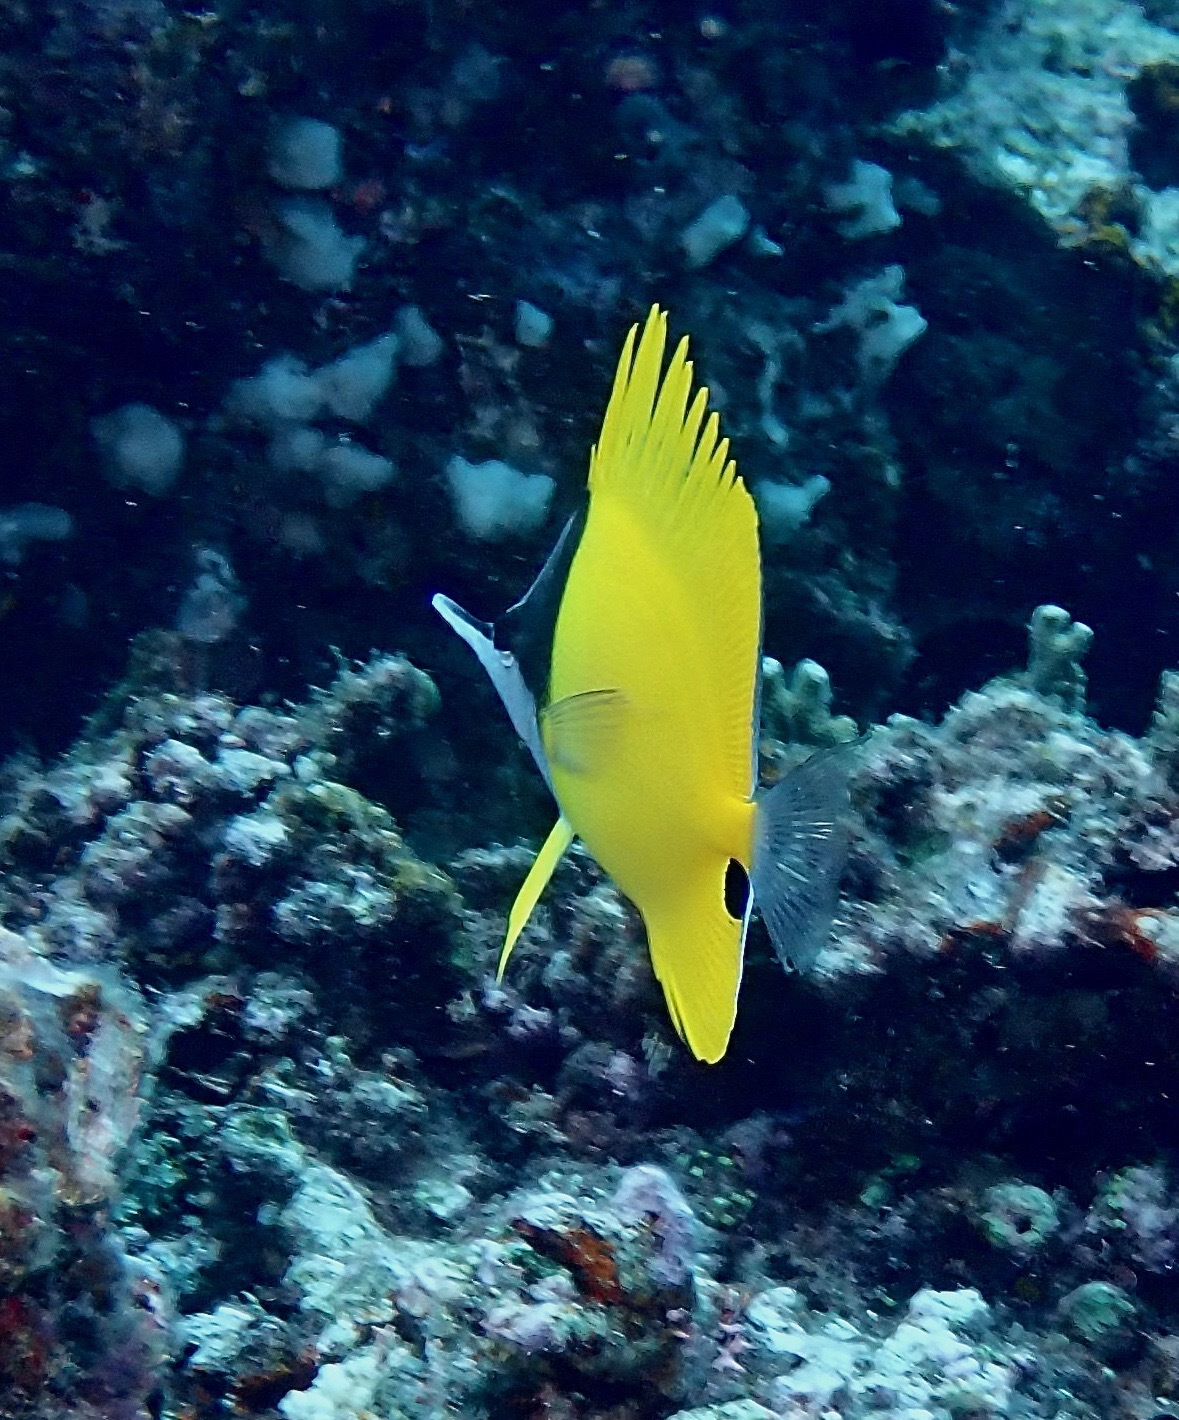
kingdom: Animalia
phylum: Chordata
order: Perciformes
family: Chaetodontidae
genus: Forcipiger
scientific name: Forcipiger longirostris
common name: Longnose butterflyfish
